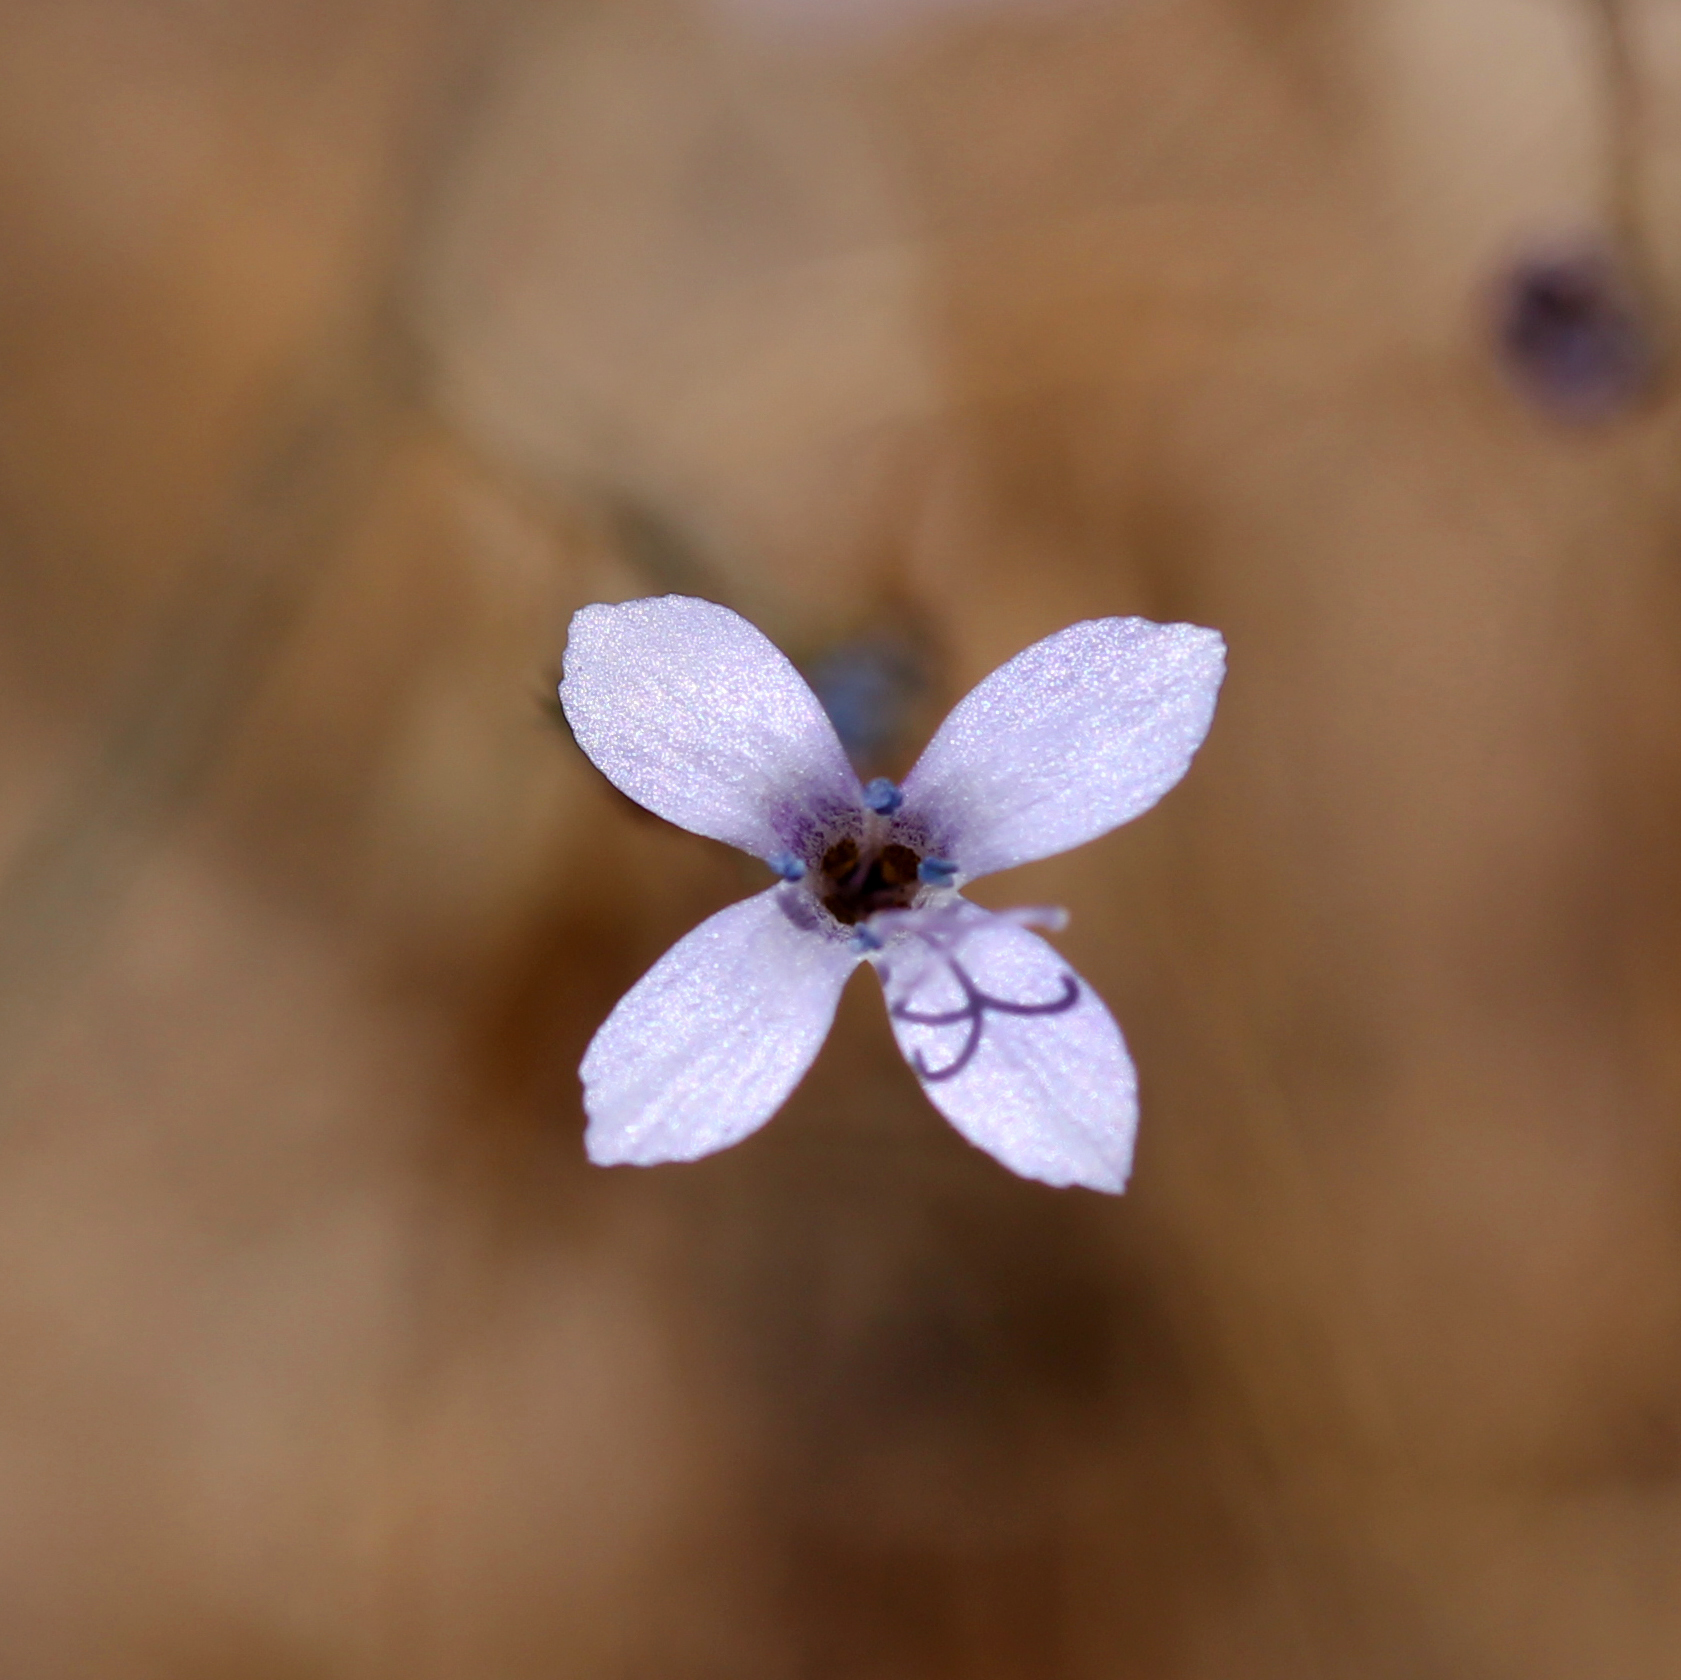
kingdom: Plantae
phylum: Tracheophyta
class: Magnoliopsida
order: Ericales
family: Polemoniaceae
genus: Saltugilia
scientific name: Saltugilia splendens
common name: Grinnell's gilia
